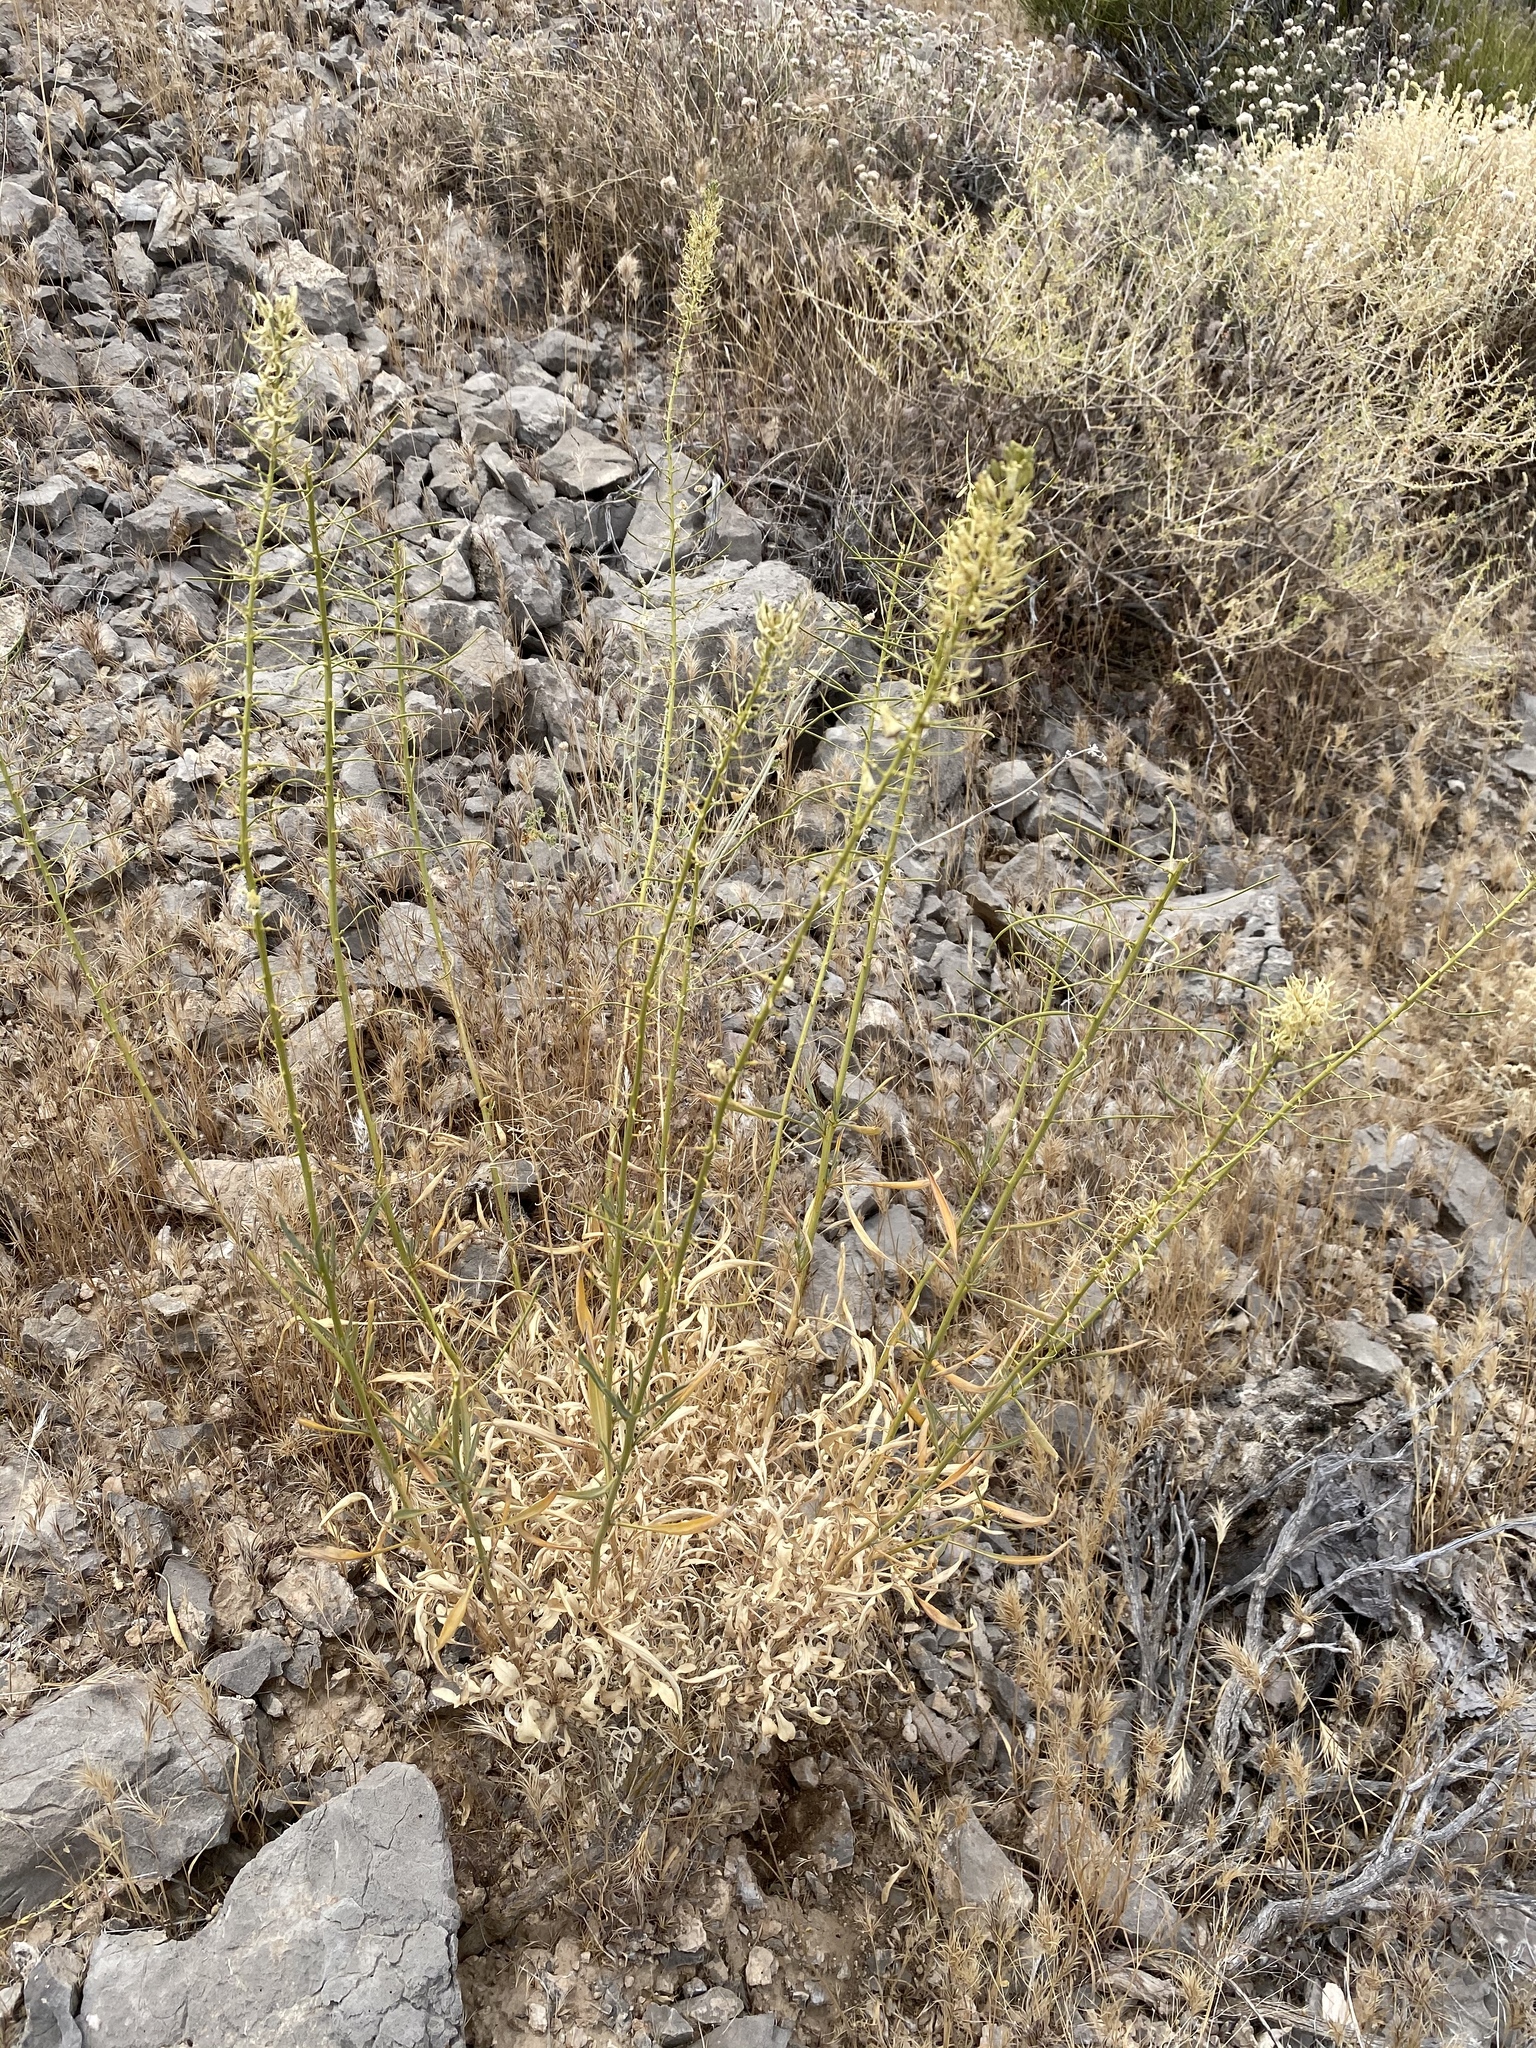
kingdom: Plantae
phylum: Tracheophyta
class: Magnoliopsida
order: Brassicales
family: Brassicaceae
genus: Stanleya
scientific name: Stanleya pinnata
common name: Prince's-plume
